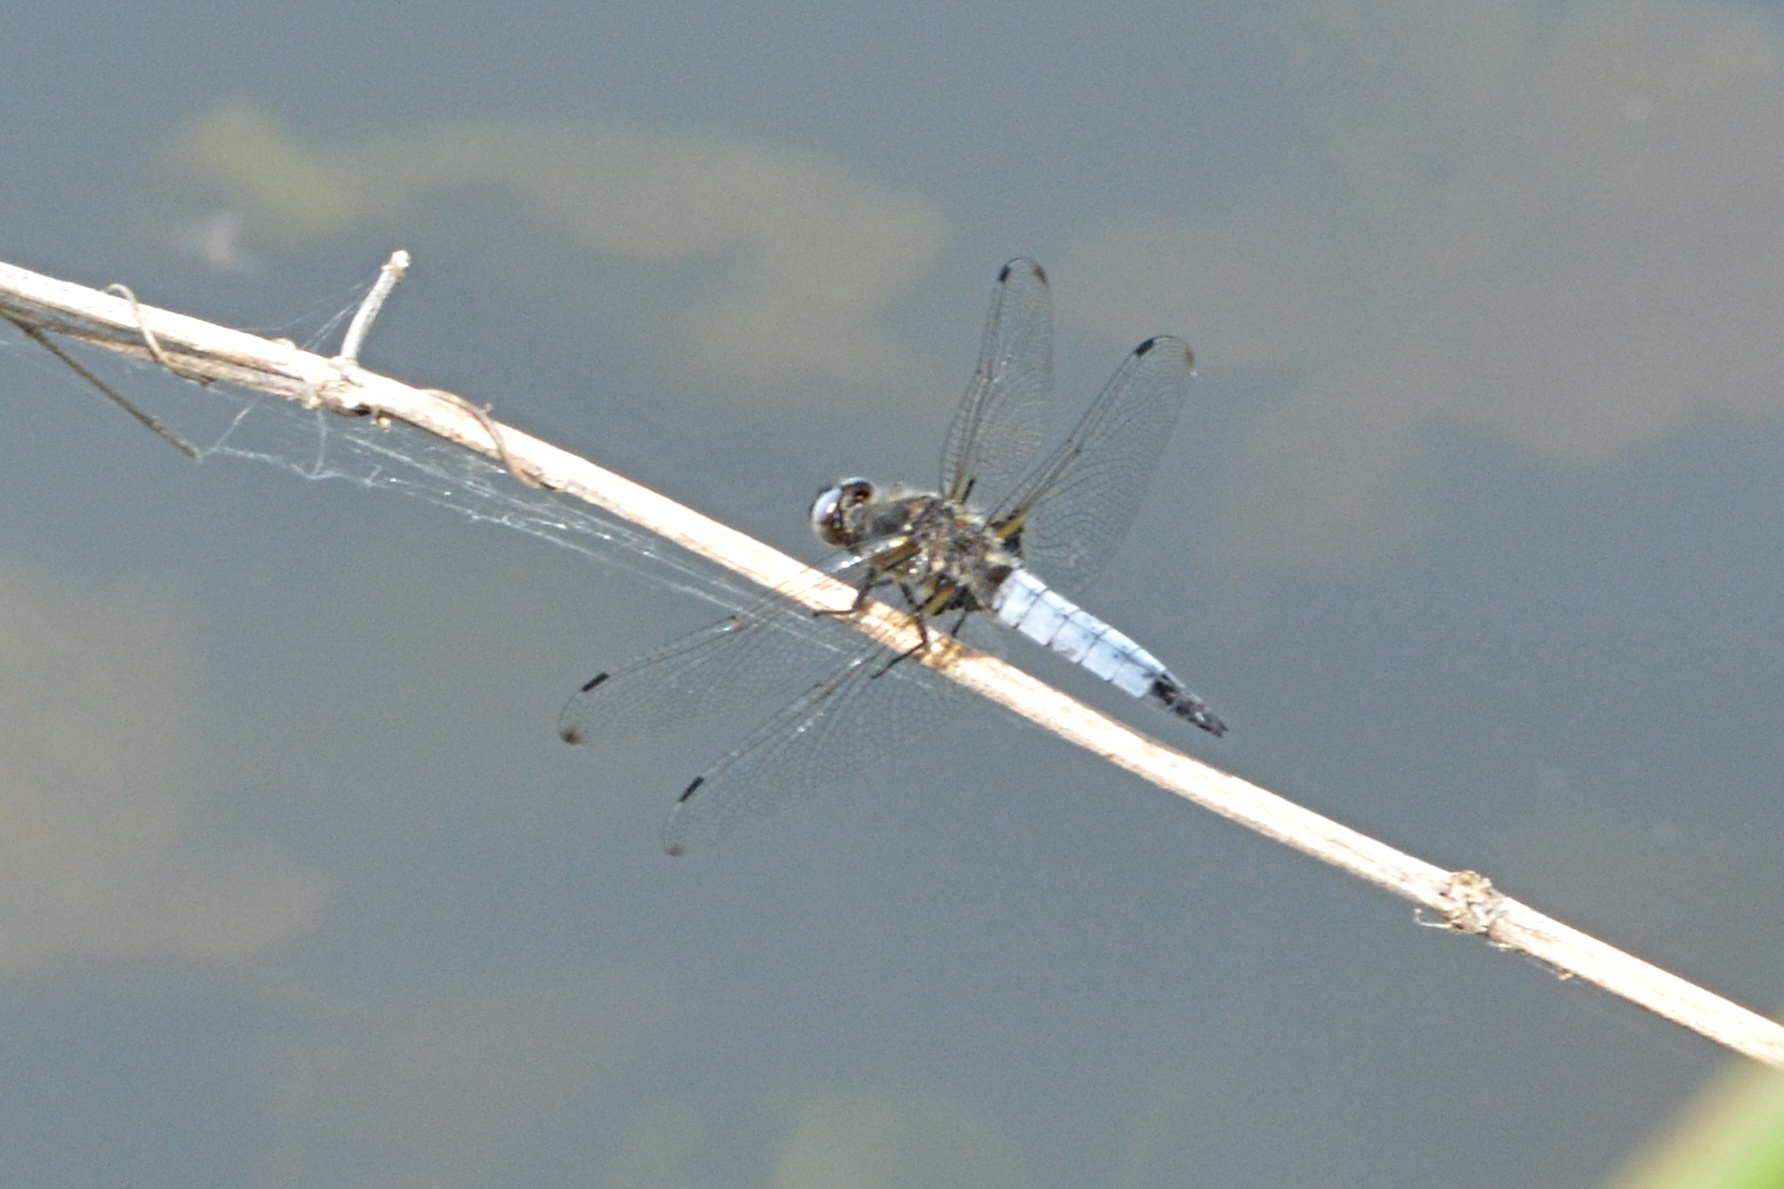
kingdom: Animalia
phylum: Arthropoda
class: Insecta
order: Odonata
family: Libellulidae
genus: Orthetrum
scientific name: Orthetrum cancellatum
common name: Black-tailed skimmer
